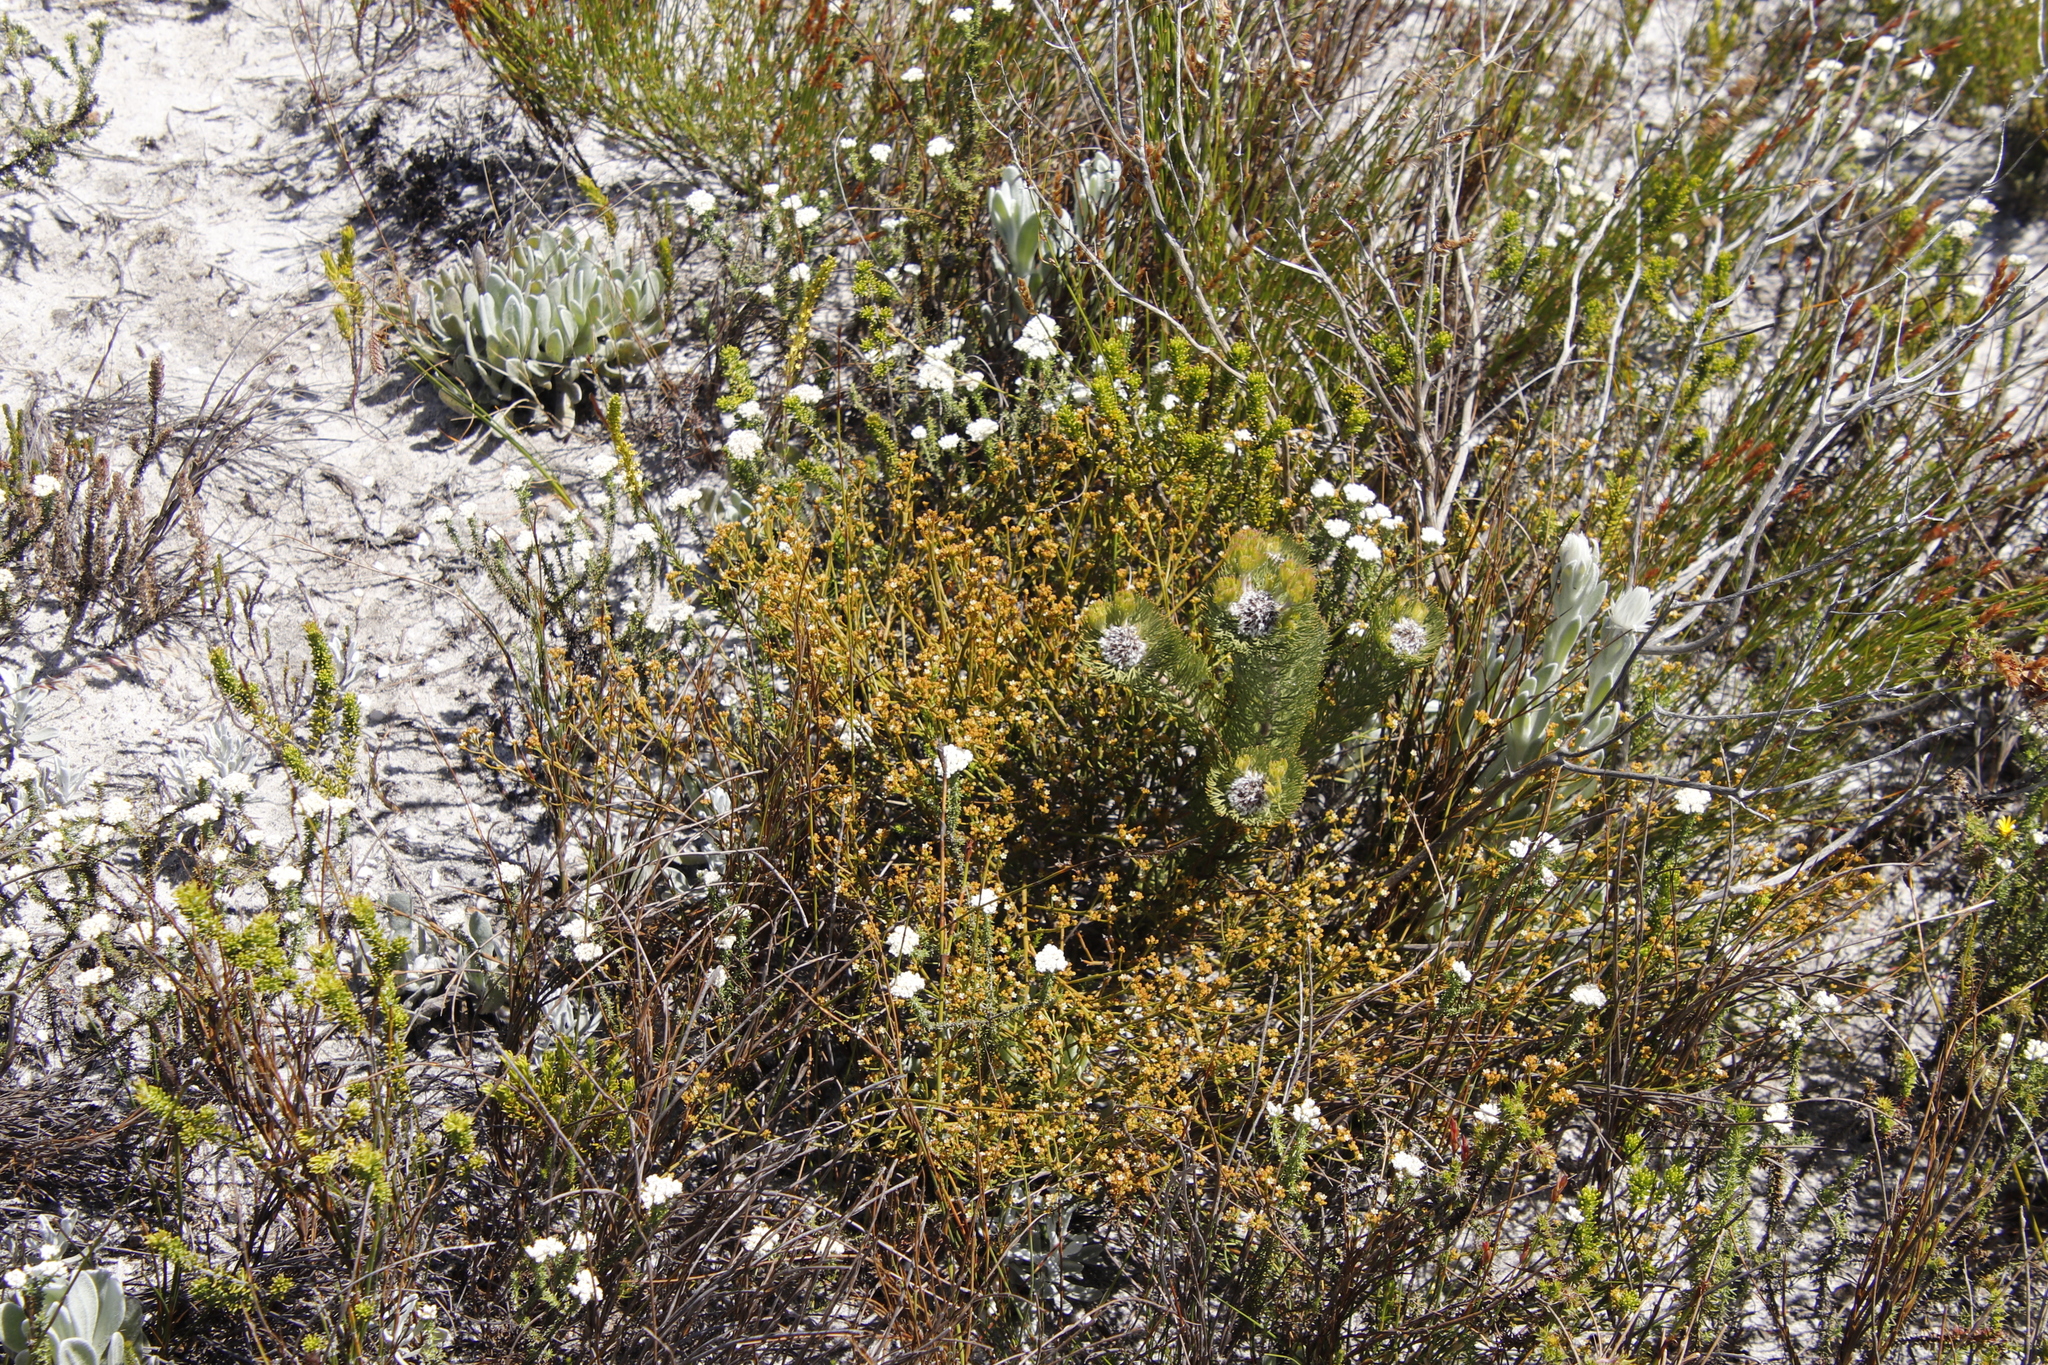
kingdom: Plantae
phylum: Tracheophyta
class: Magnoliopsida
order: Proteales
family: Proteaceae
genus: Serruria
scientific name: Serruria villosa
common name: Golden spiderhead
